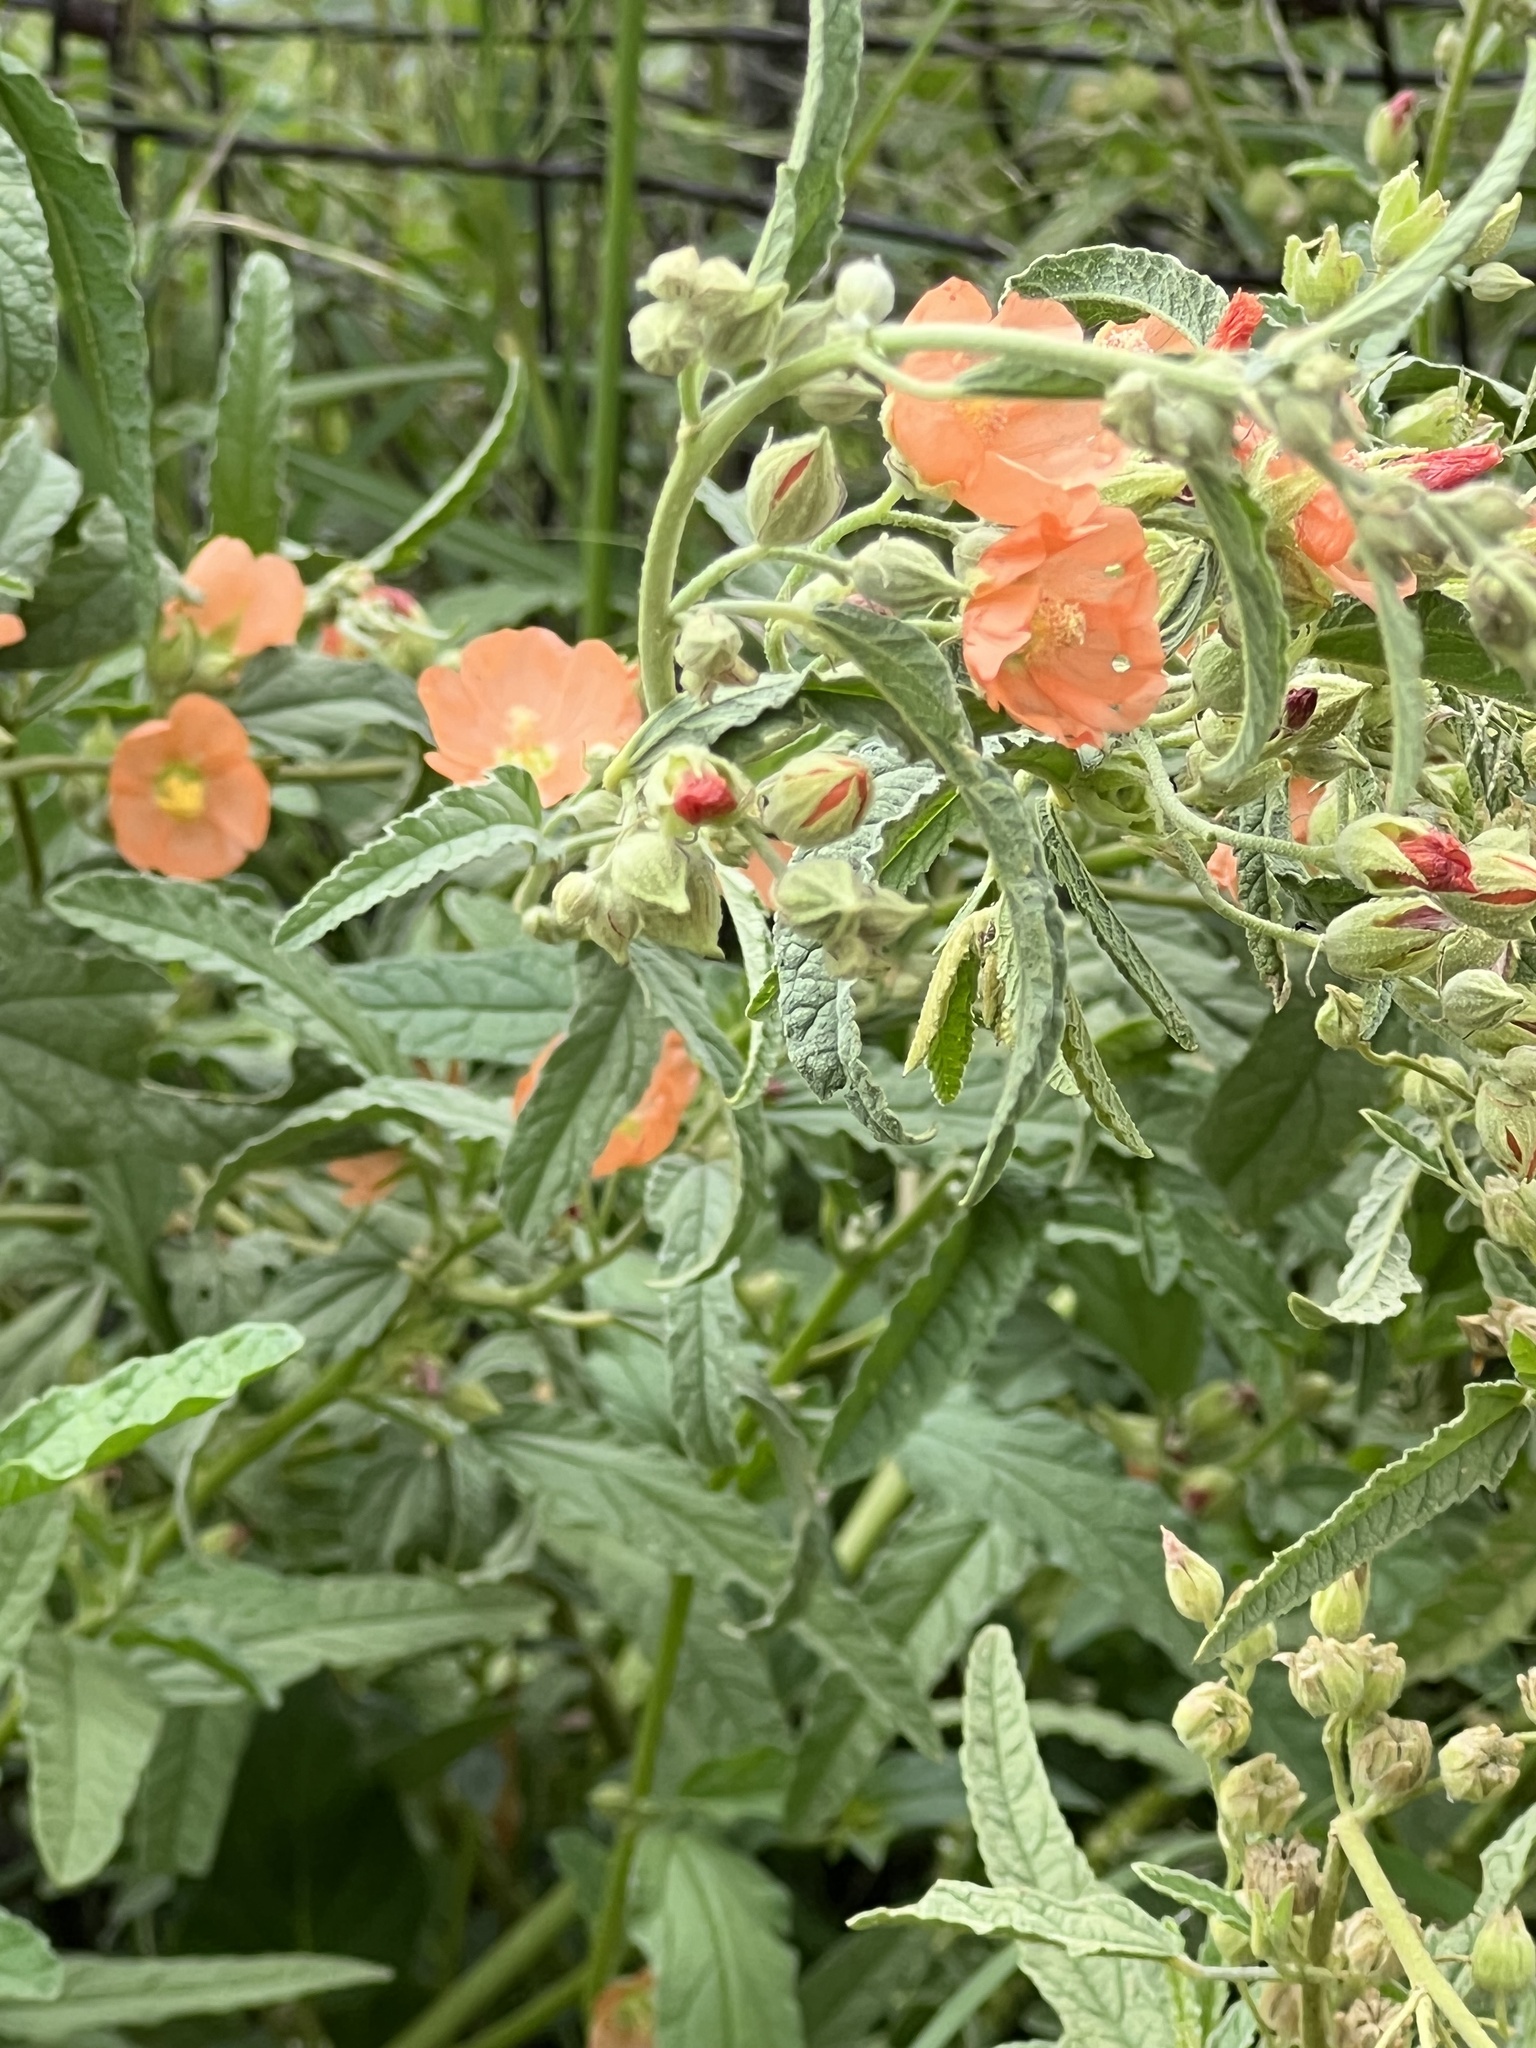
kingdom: Plantae
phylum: Tracheophyta
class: Magnoliopsida
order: Malvales
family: Malvaceae
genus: Sphaeralcea
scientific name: Sphaeralcea angustifolia
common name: Copper globe-mallow
